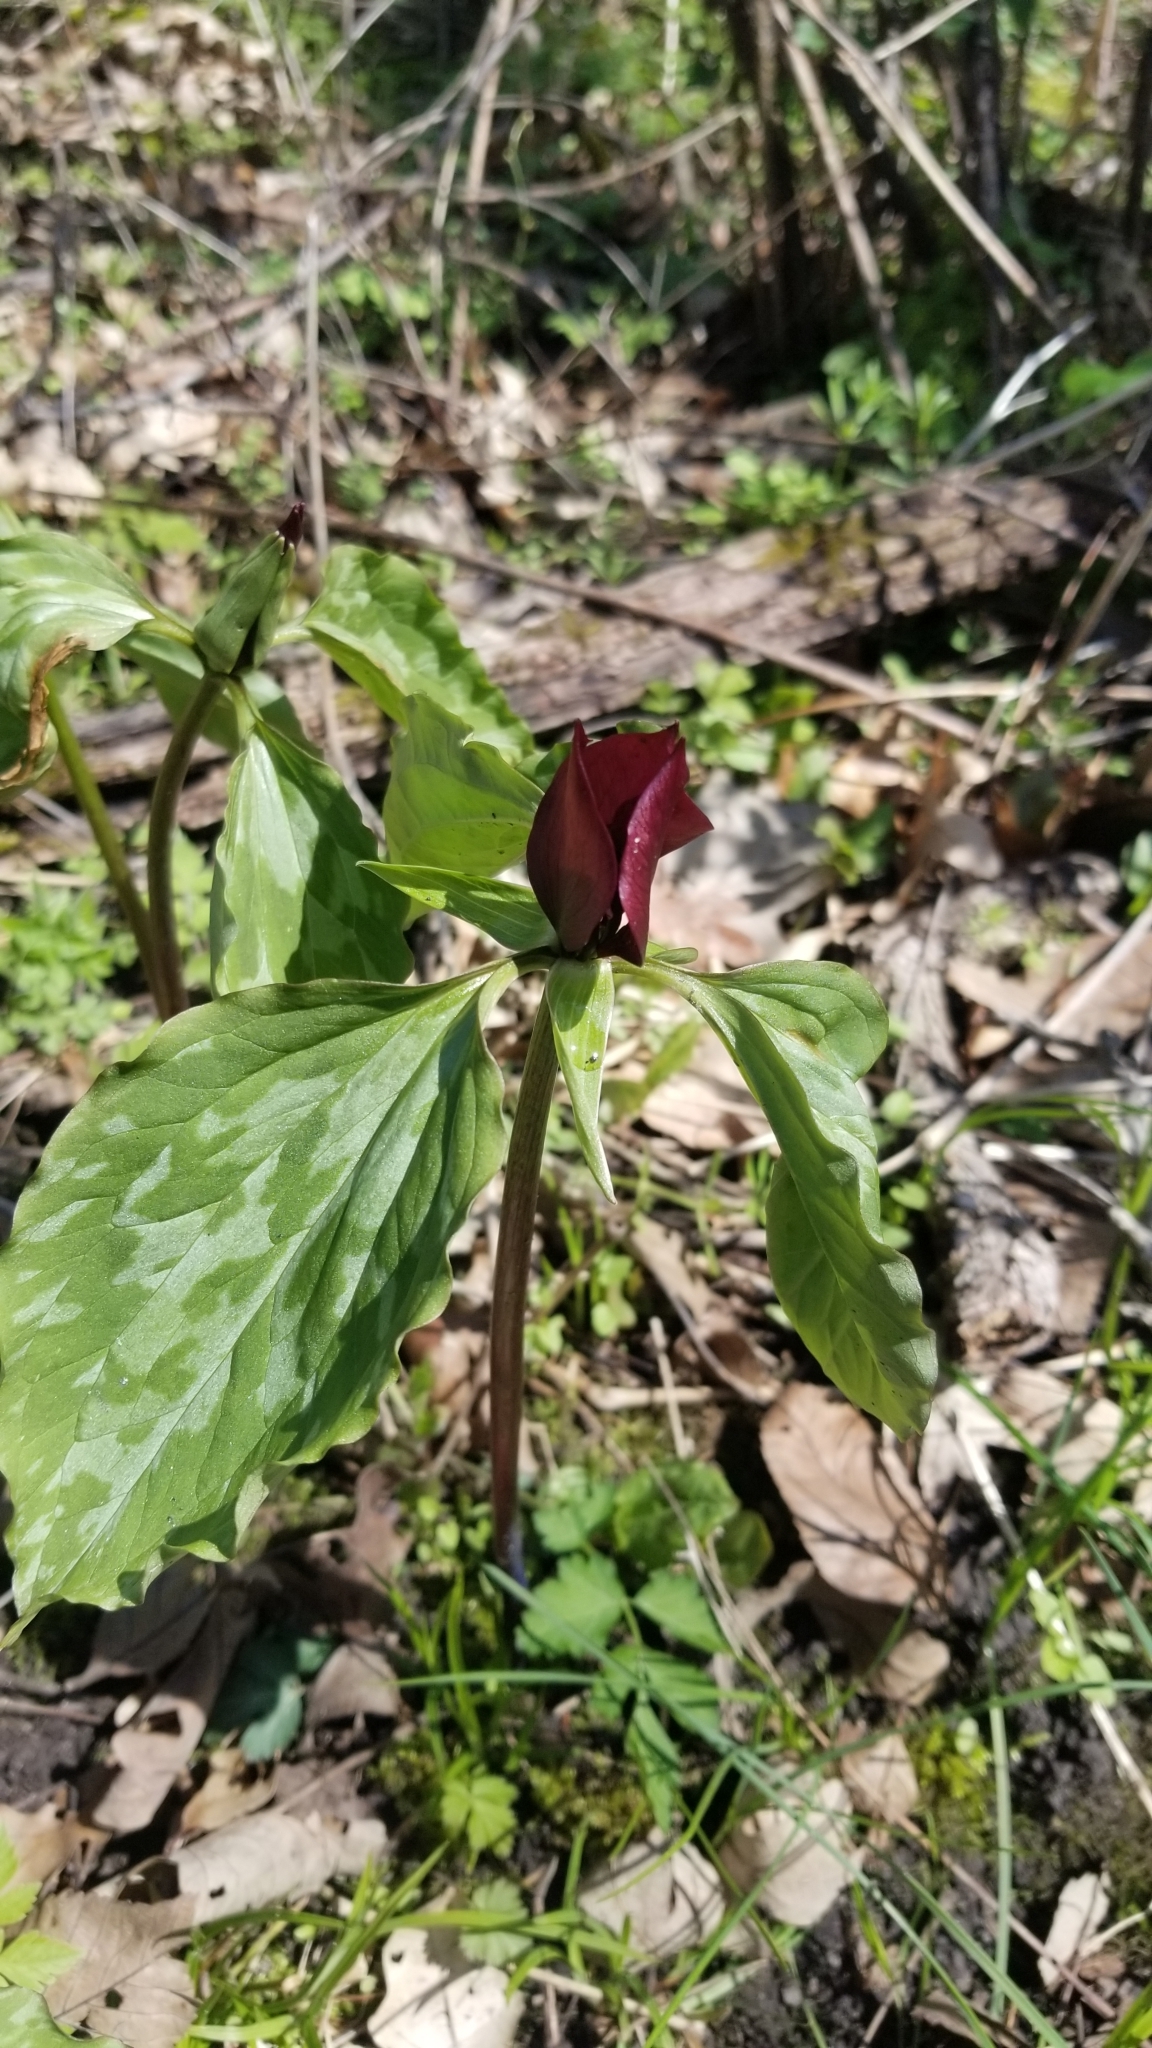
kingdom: Plantae
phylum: Tracheophyta
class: Liliopsida
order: Liliales
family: Melanthiaceae
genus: Trillium
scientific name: Trillium recurvatum
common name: Bloody butcher
